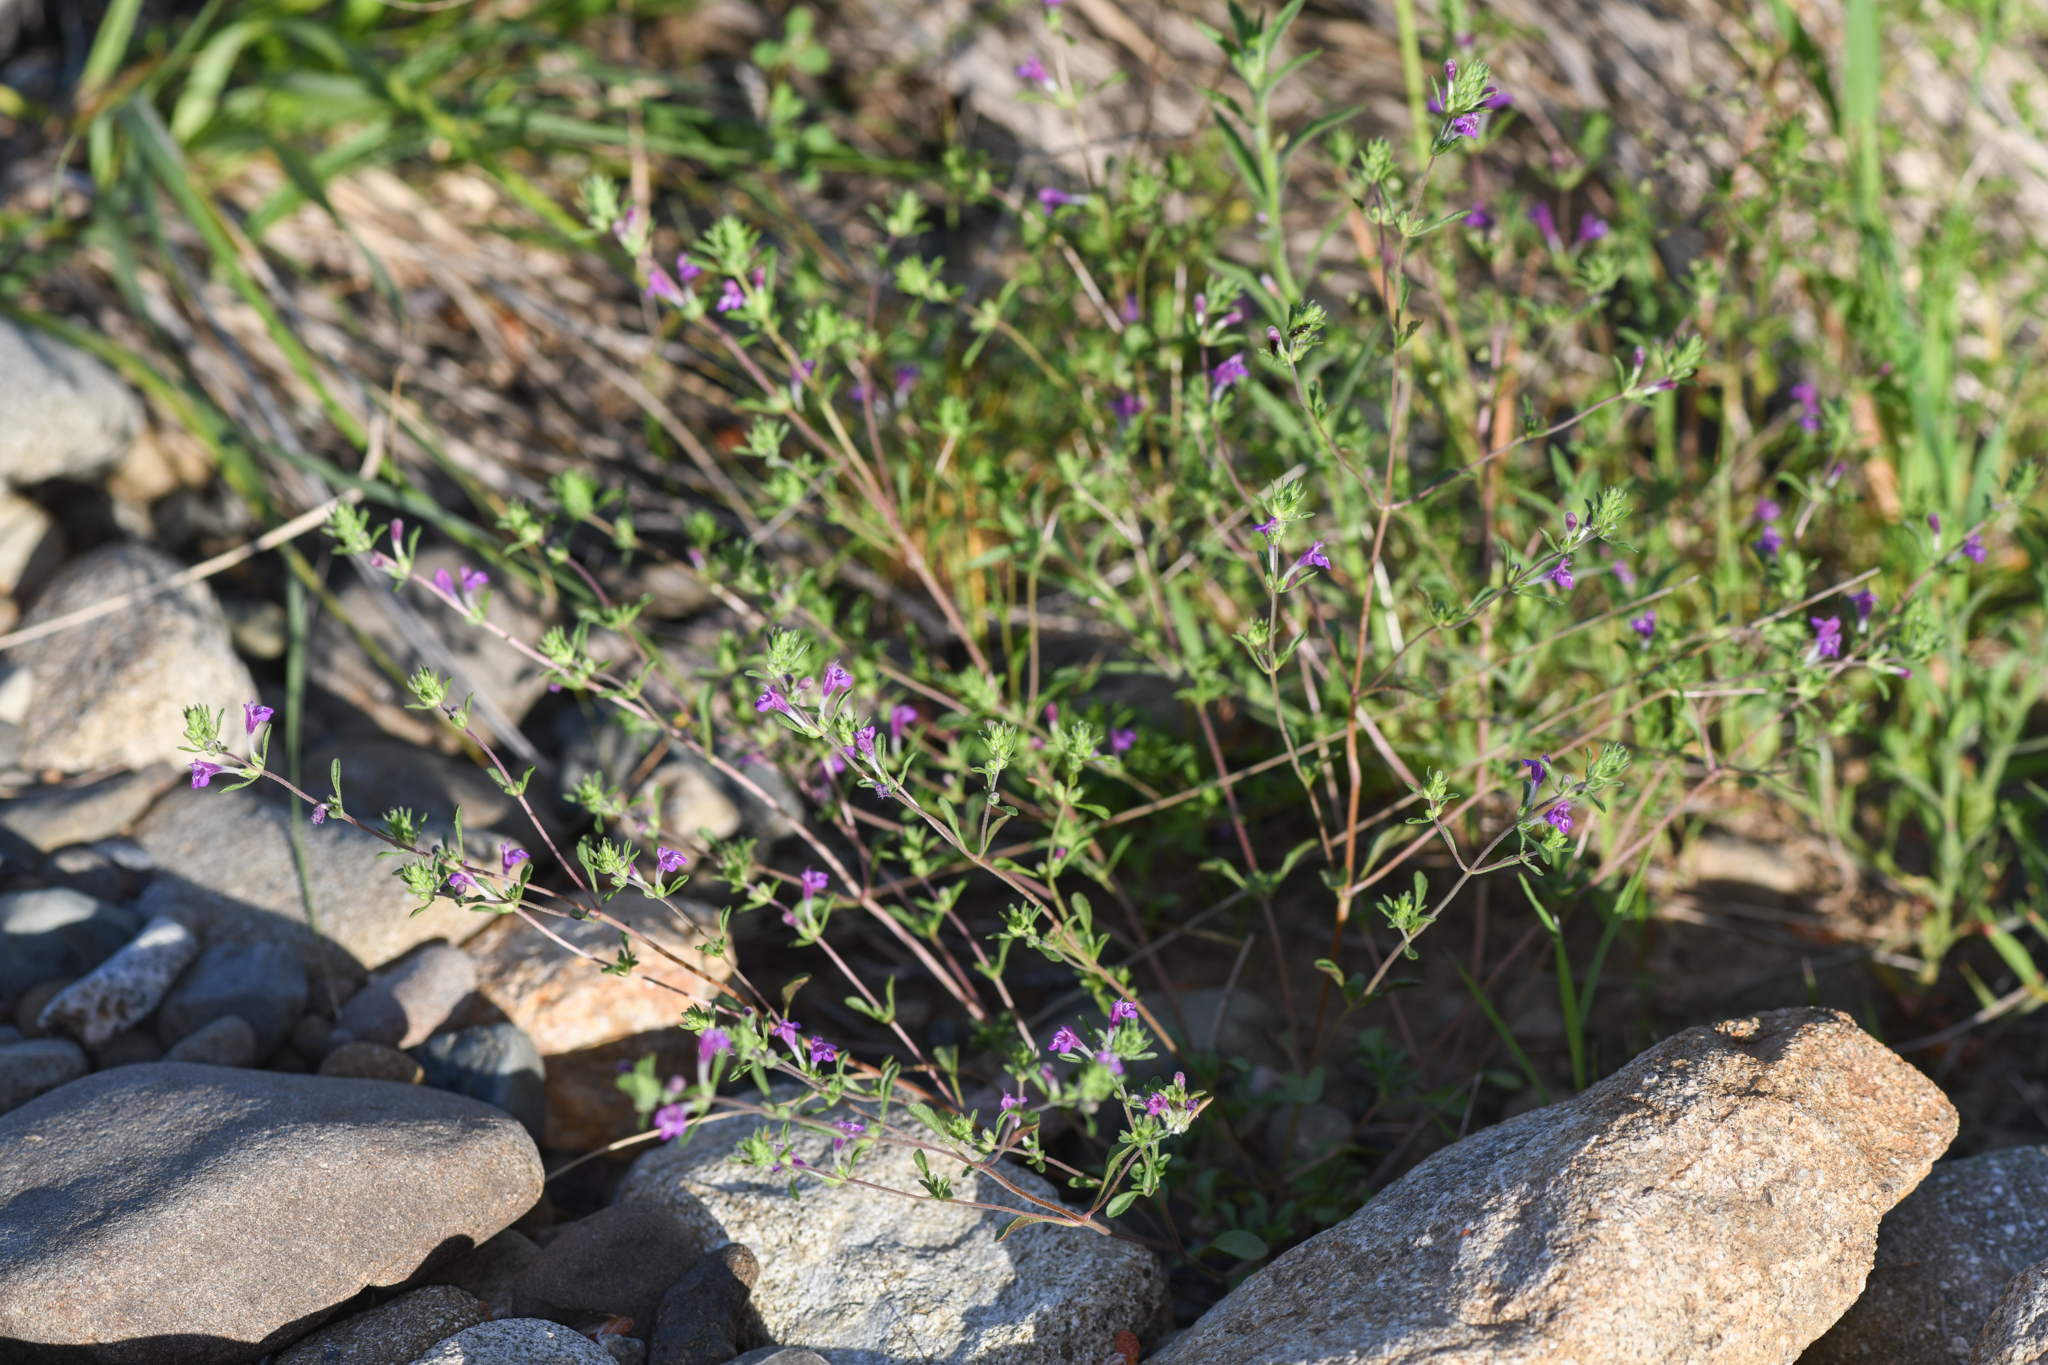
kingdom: Plantae
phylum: Tracheophyta
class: Magnoliopsida
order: Lamiales
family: Lamiaceae
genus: Pogogyne
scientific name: Pogogyne clareana
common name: Santa lucia-mint
